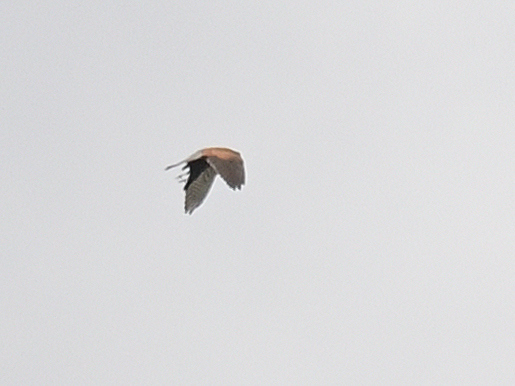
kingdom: Animalia
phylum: Chordata
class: Aves
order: Falconiformes
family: Falconidae
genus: Falco
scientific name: Falco tinnunculus
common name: Common kestrel
